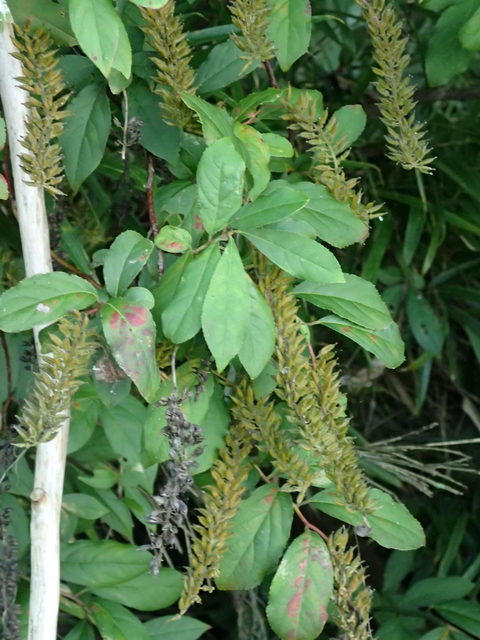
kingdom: Plantae
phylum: Tracheophyta
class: Magnoliopsida
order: Saxifragales
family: Iteaceae
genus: Itea
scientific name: Itea virginica
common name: Sweetspire
